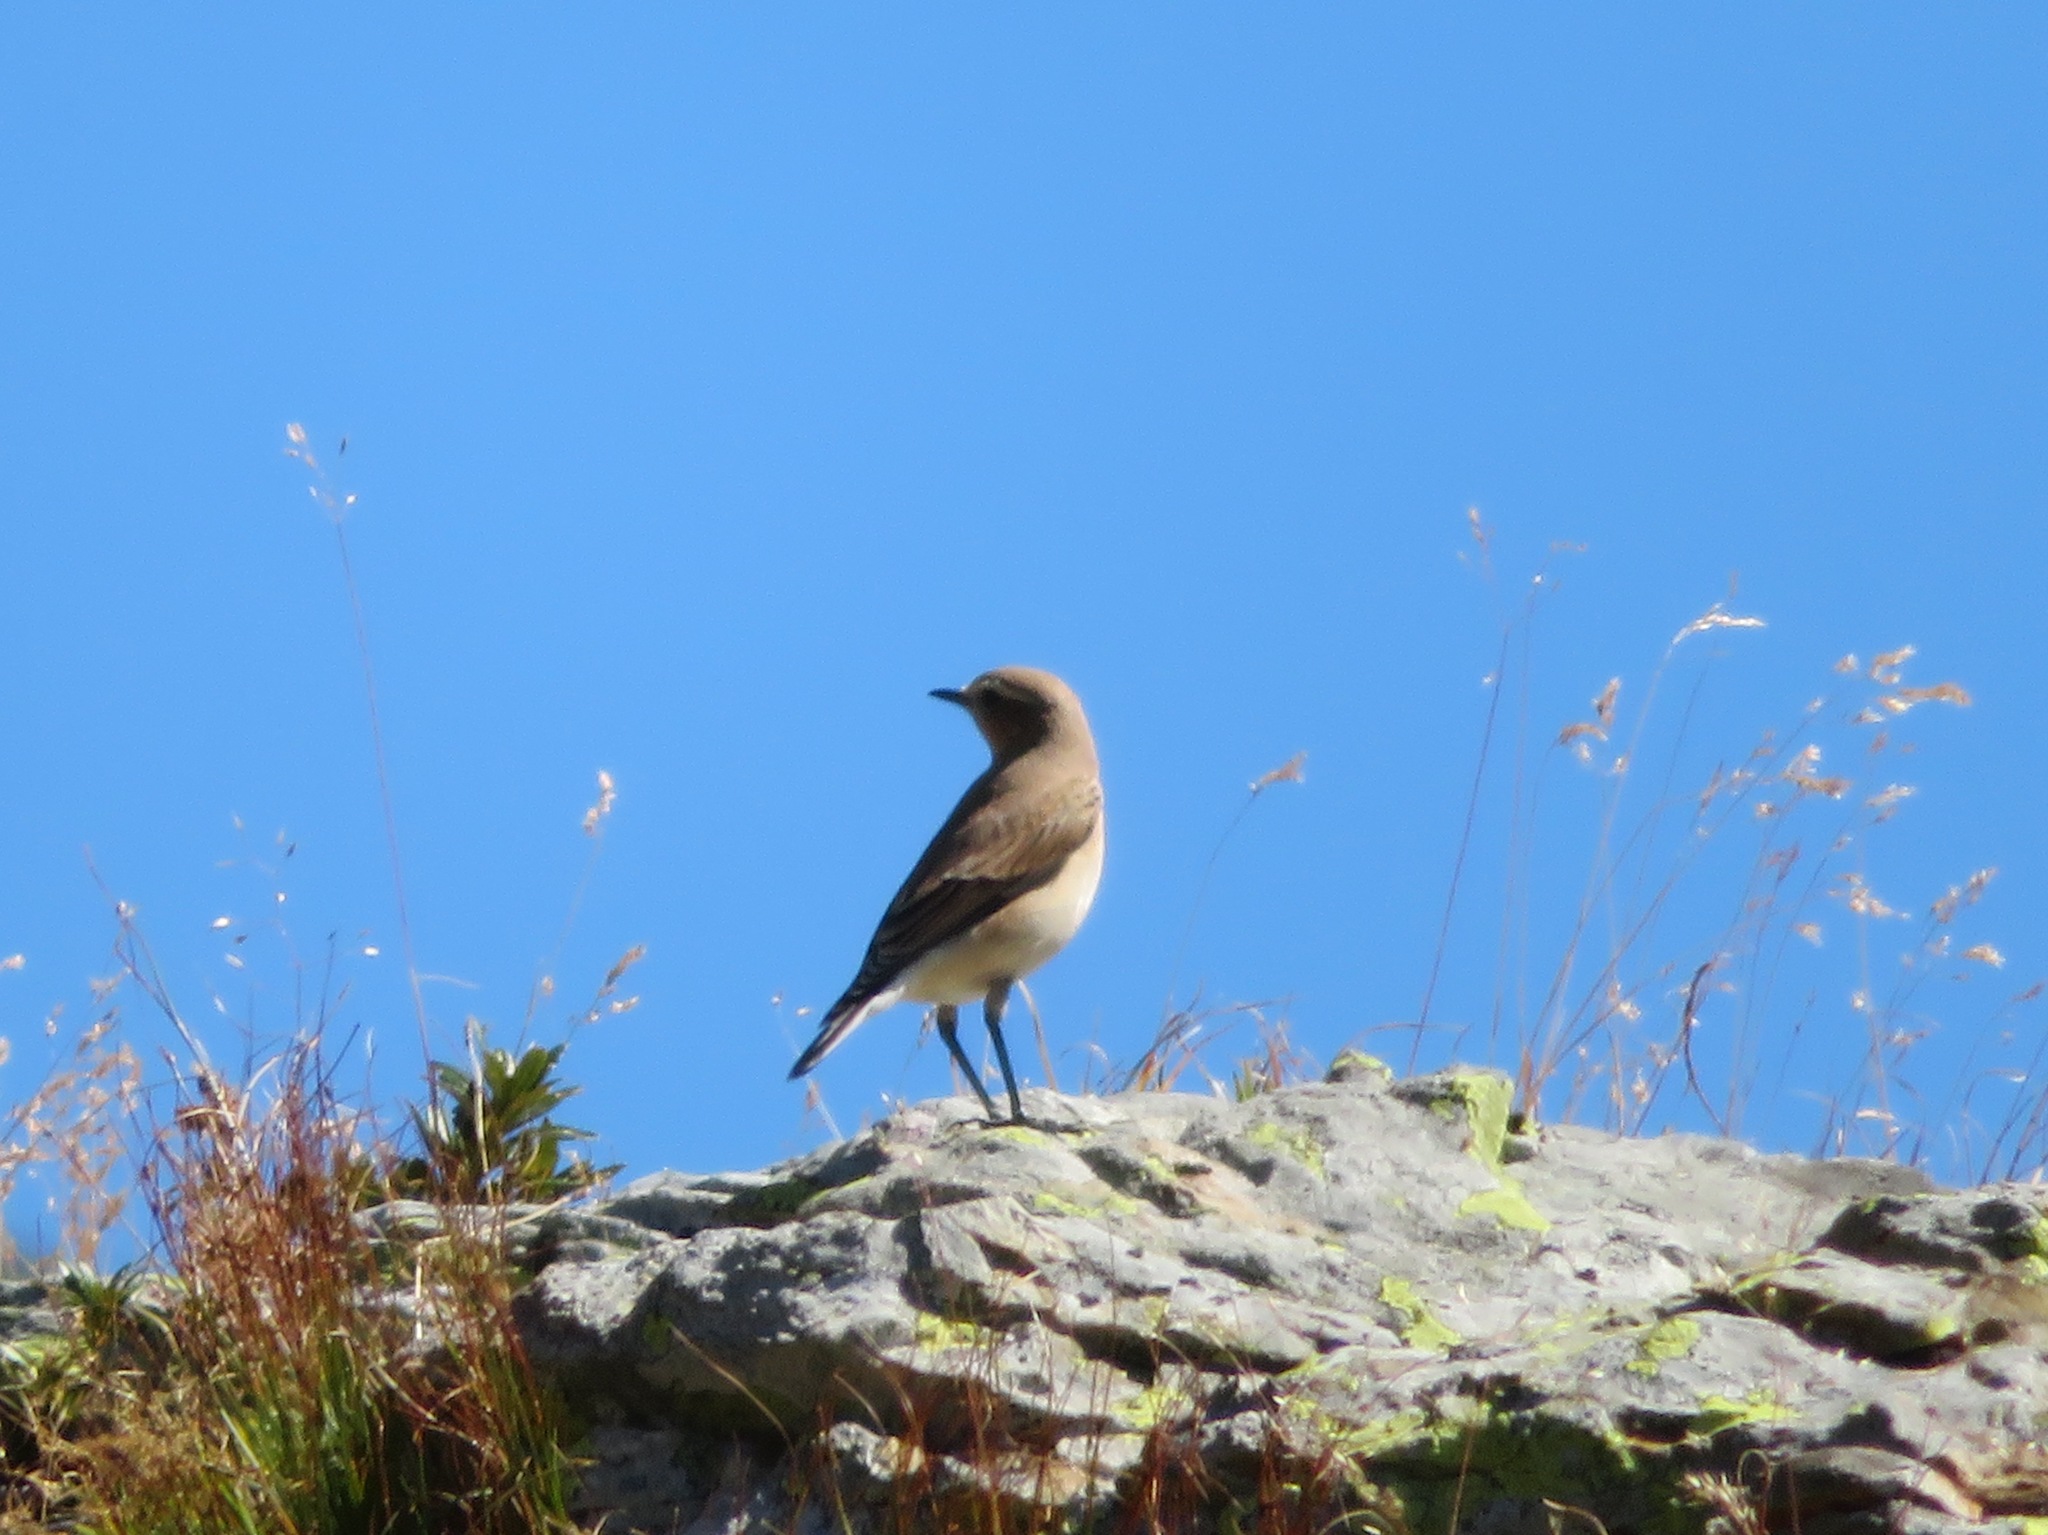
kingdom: Animalia
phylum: Chordata
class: Aves
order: Passeriformes
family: Muscicapidae
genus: Oenanthe
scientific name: Oenanthe oenanthe
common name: Northern wheatear
